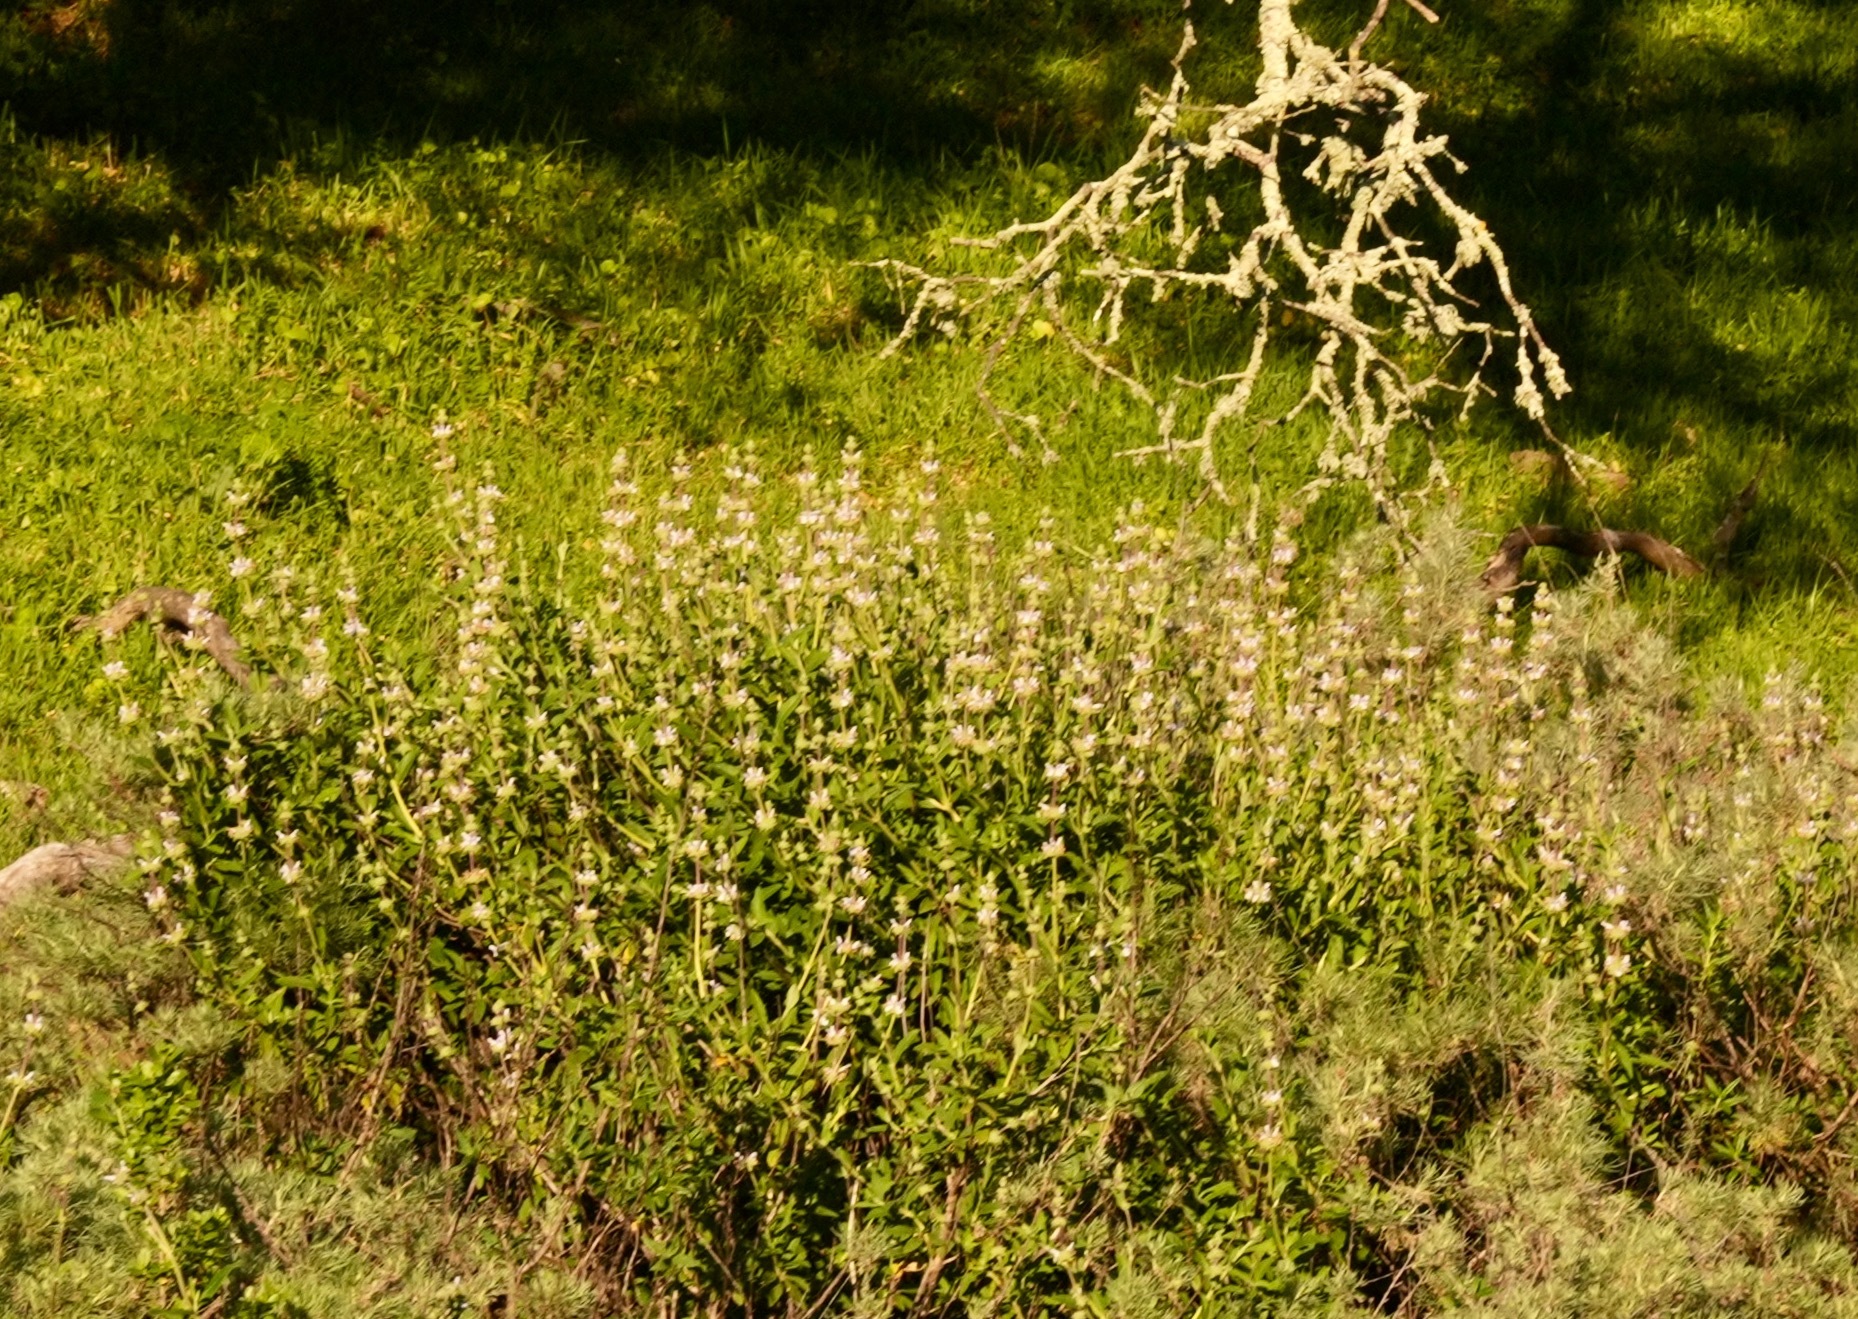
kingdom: Plantae
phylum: Tracheophyta
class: Magnoliopsida
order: Lamiales
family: Lamiaceae
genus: Salvia
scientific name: Salvia mellifera
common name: Black sage
